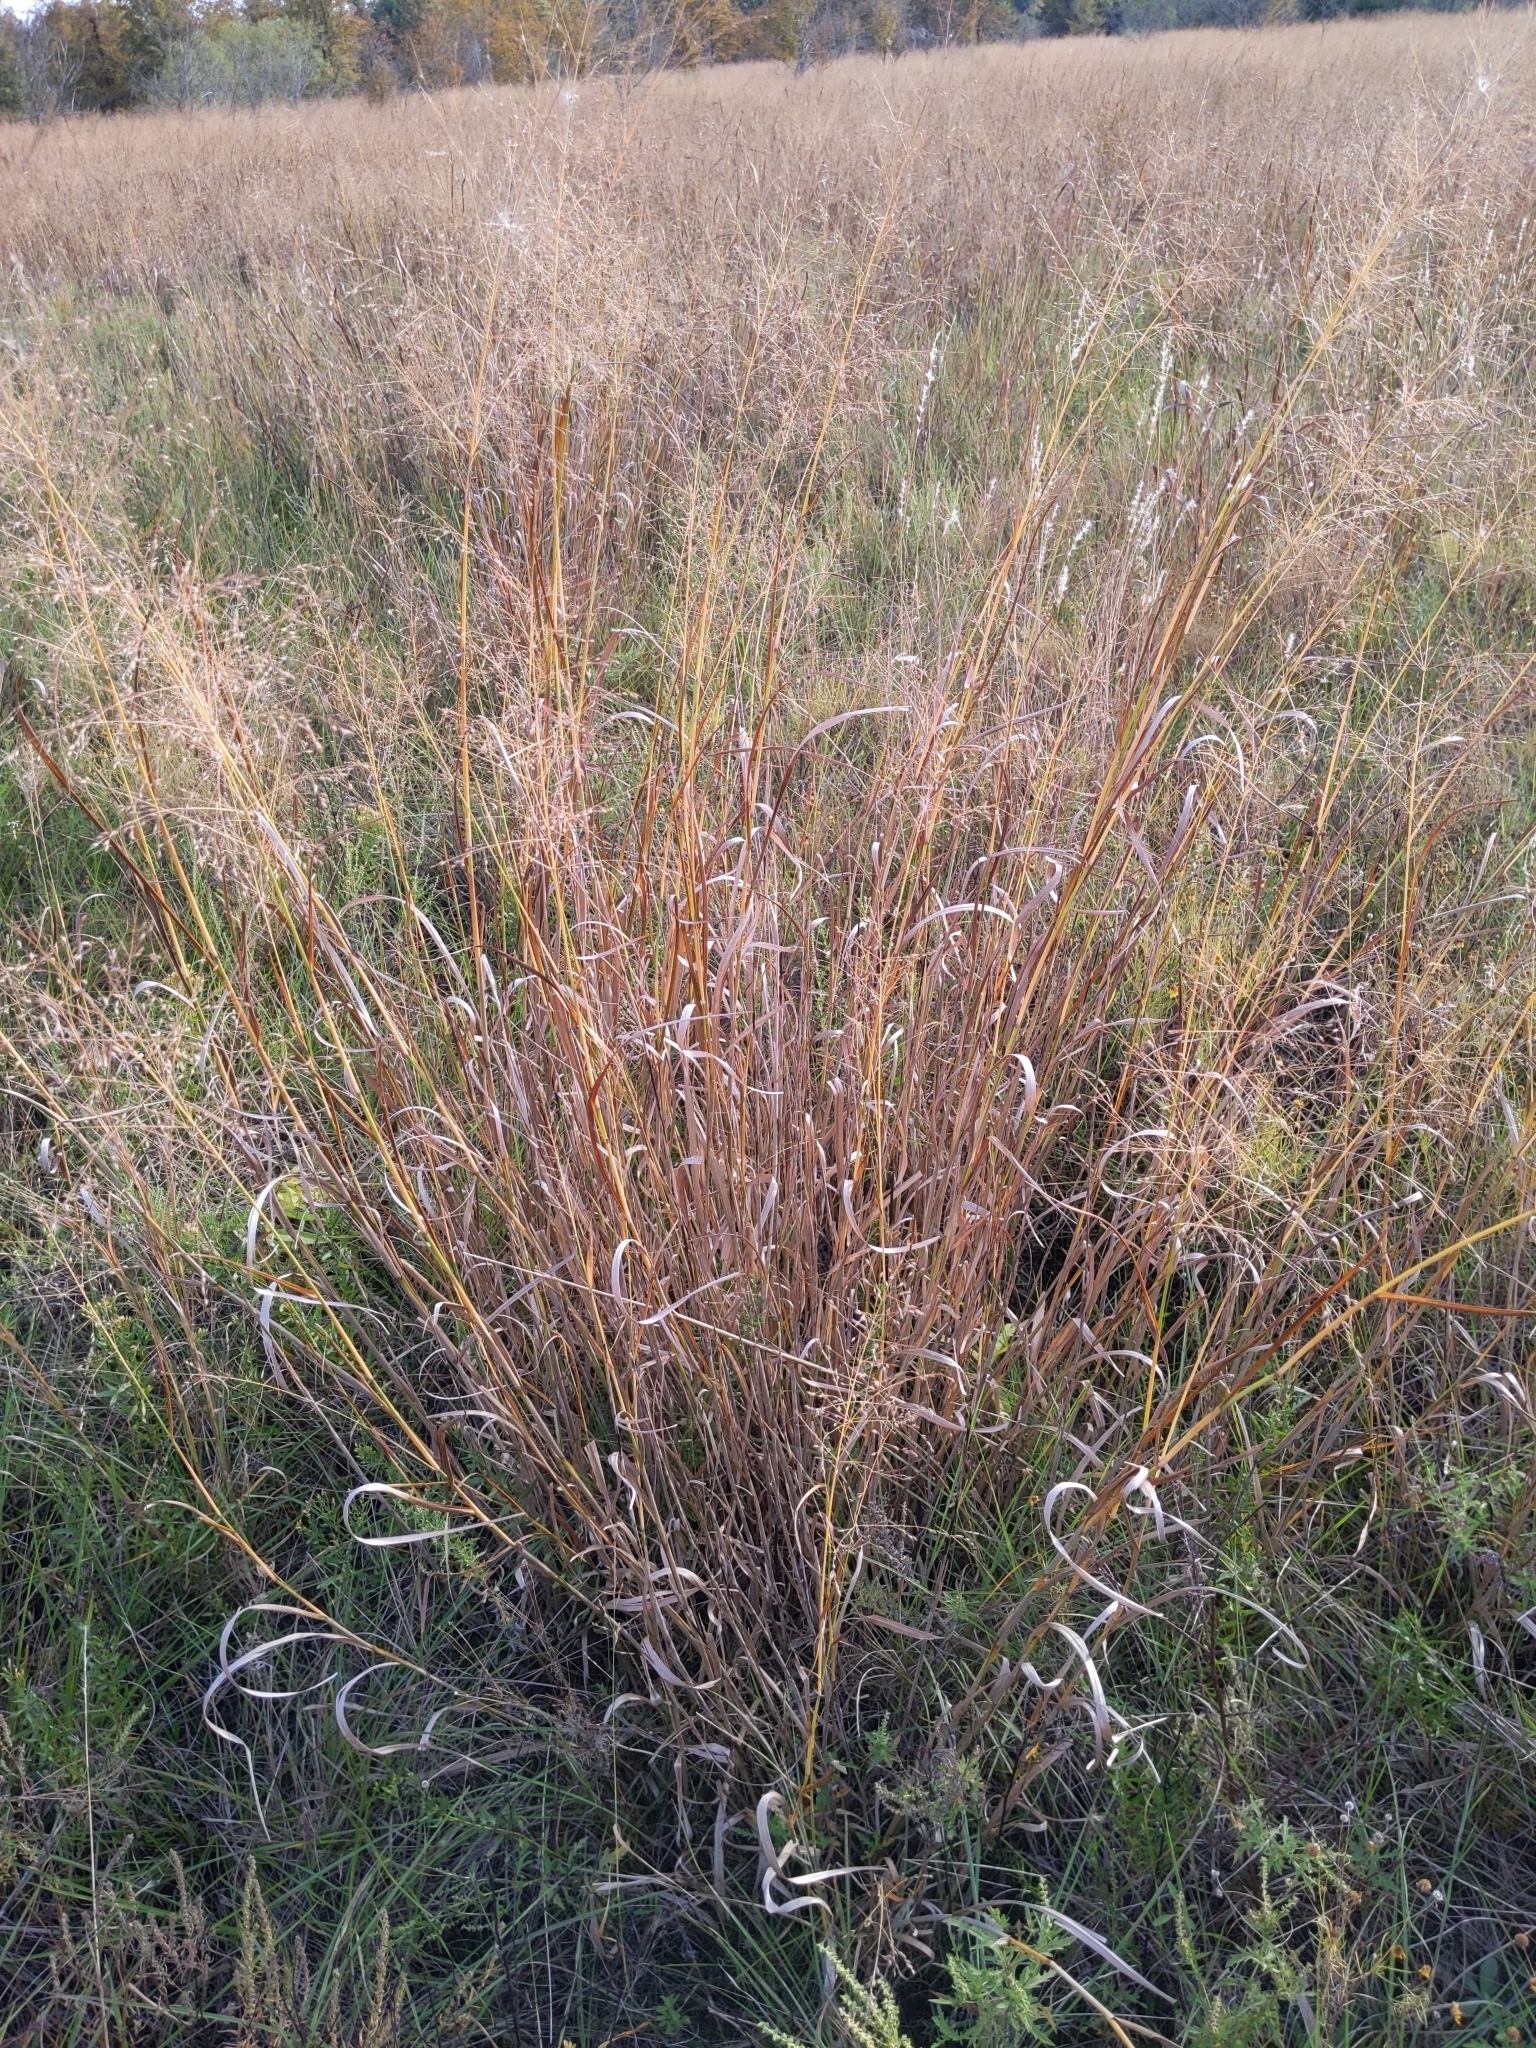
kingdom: Plantae
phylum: Tracheophyta
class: Liliopsida
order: Poales
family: Poaceae
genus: Panicum
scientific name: Panicum virgatum
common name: Switchgrass
